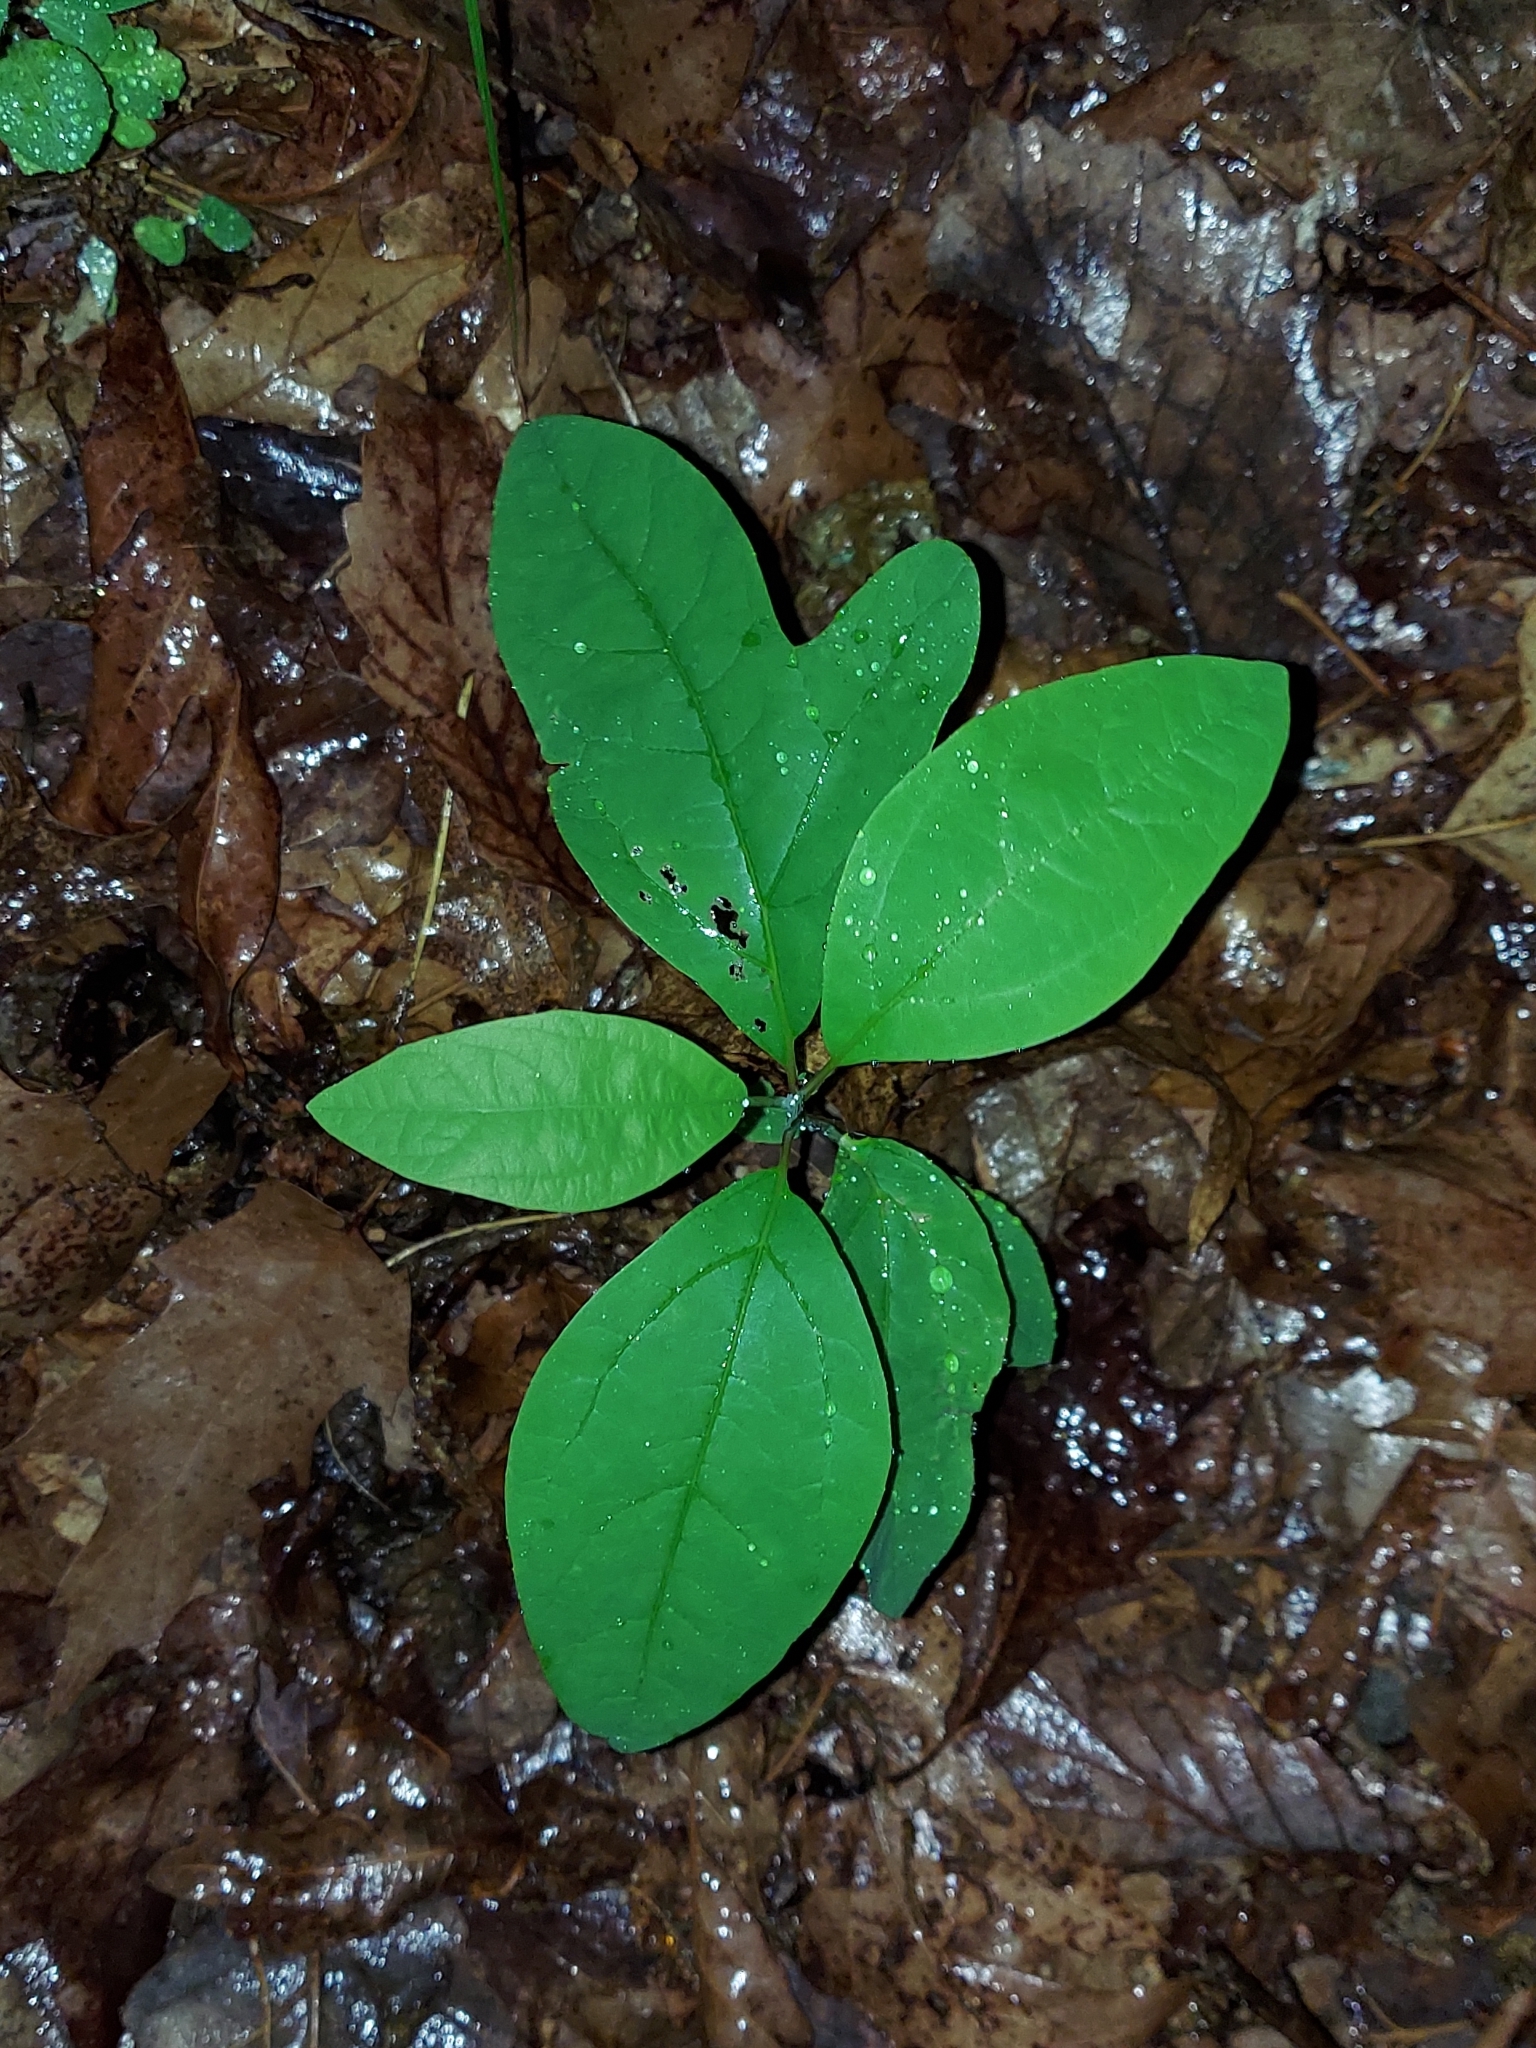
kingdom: Plantae
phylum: Tracheophyta
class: Magnoliopsida
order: Laurales
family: Lauraceae
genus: Sassafras
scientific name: Sassafras albidum
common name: Sassafras
